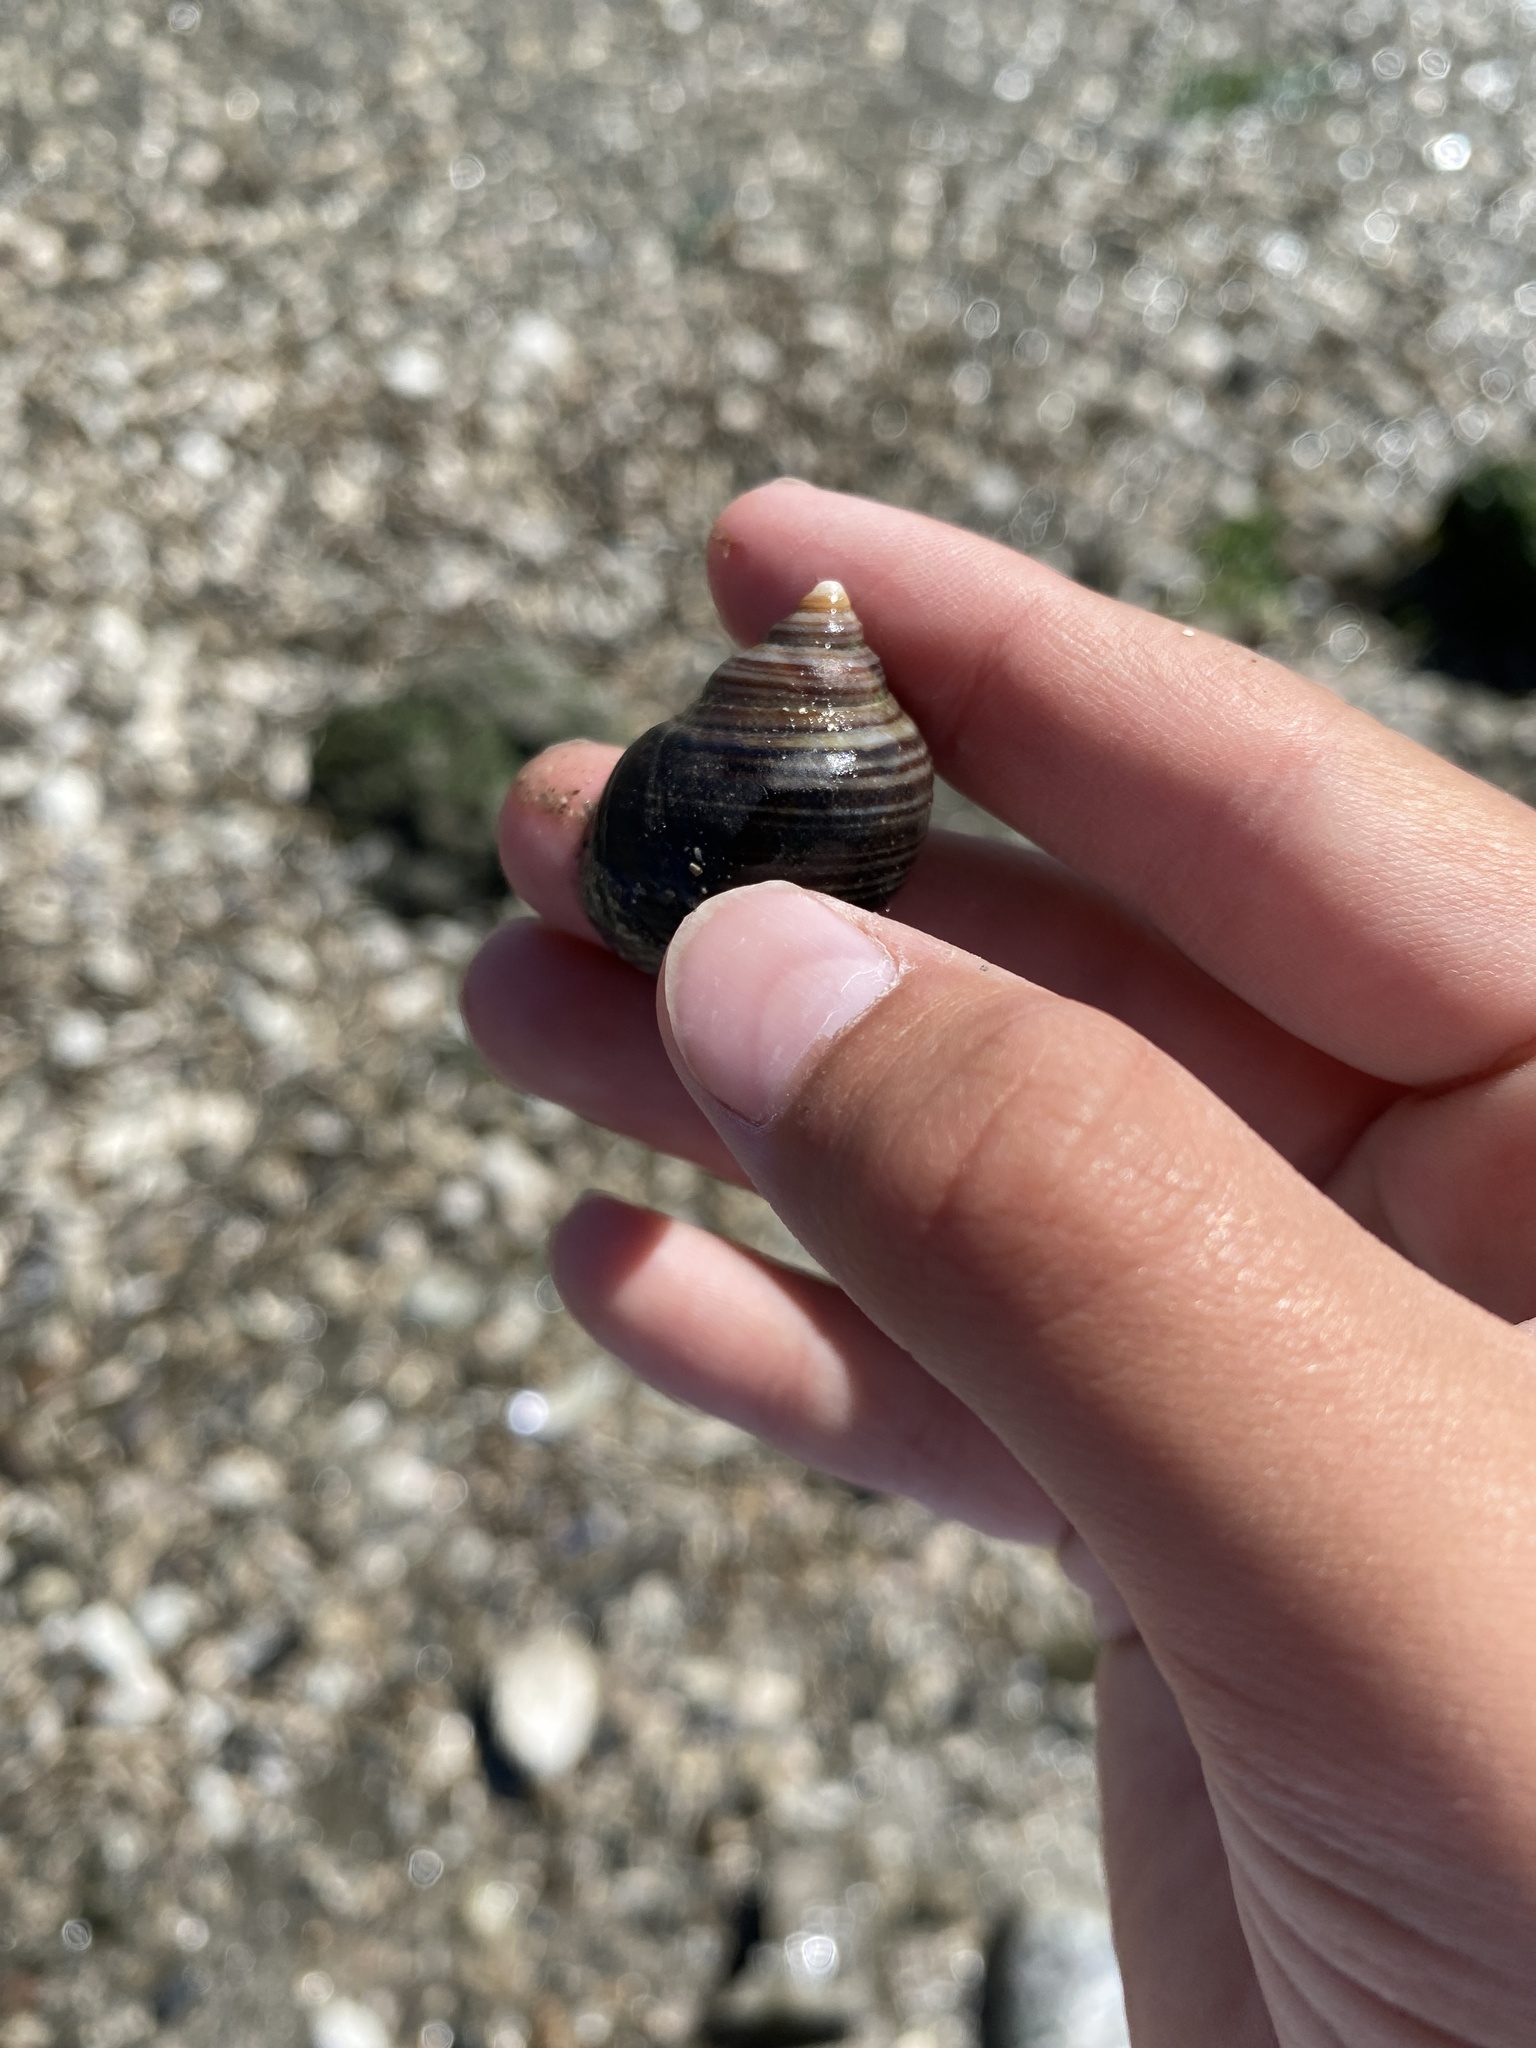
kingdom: Animalia
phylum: Mollusca
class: Gastropoda
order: Littorinimorpha
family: Littorinidae
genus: Littorina
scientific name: Littorina littorea
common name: Common periwinkle
